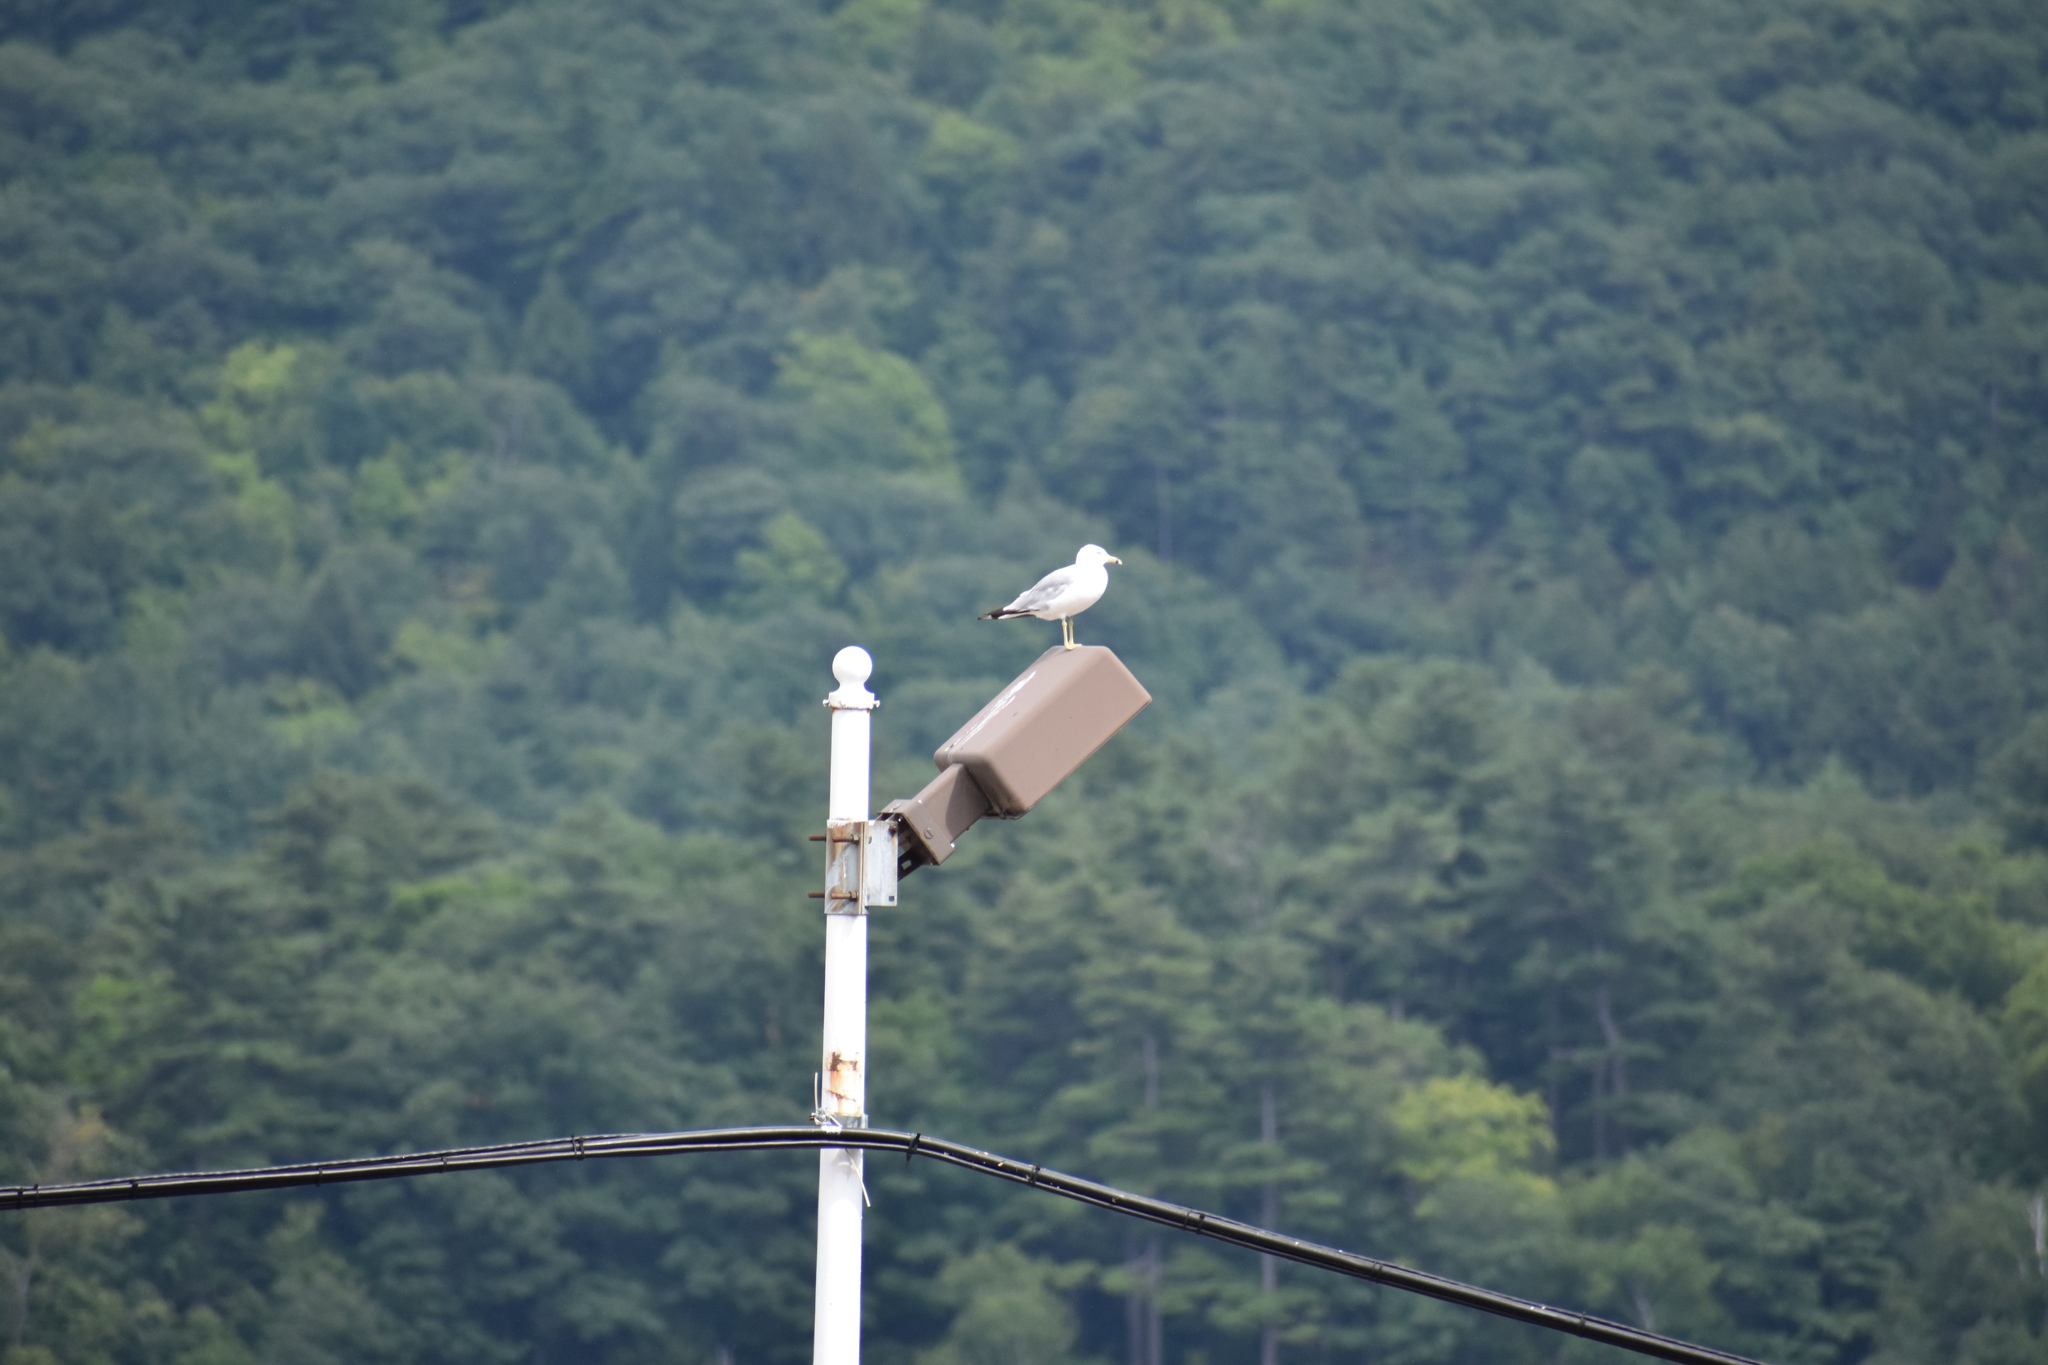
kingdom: Animalia
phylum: Chordata
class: Aves
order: Charadriiformes
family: Laridae
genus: Larus
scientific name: Larus delawarensis
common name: Ring-billed gull
